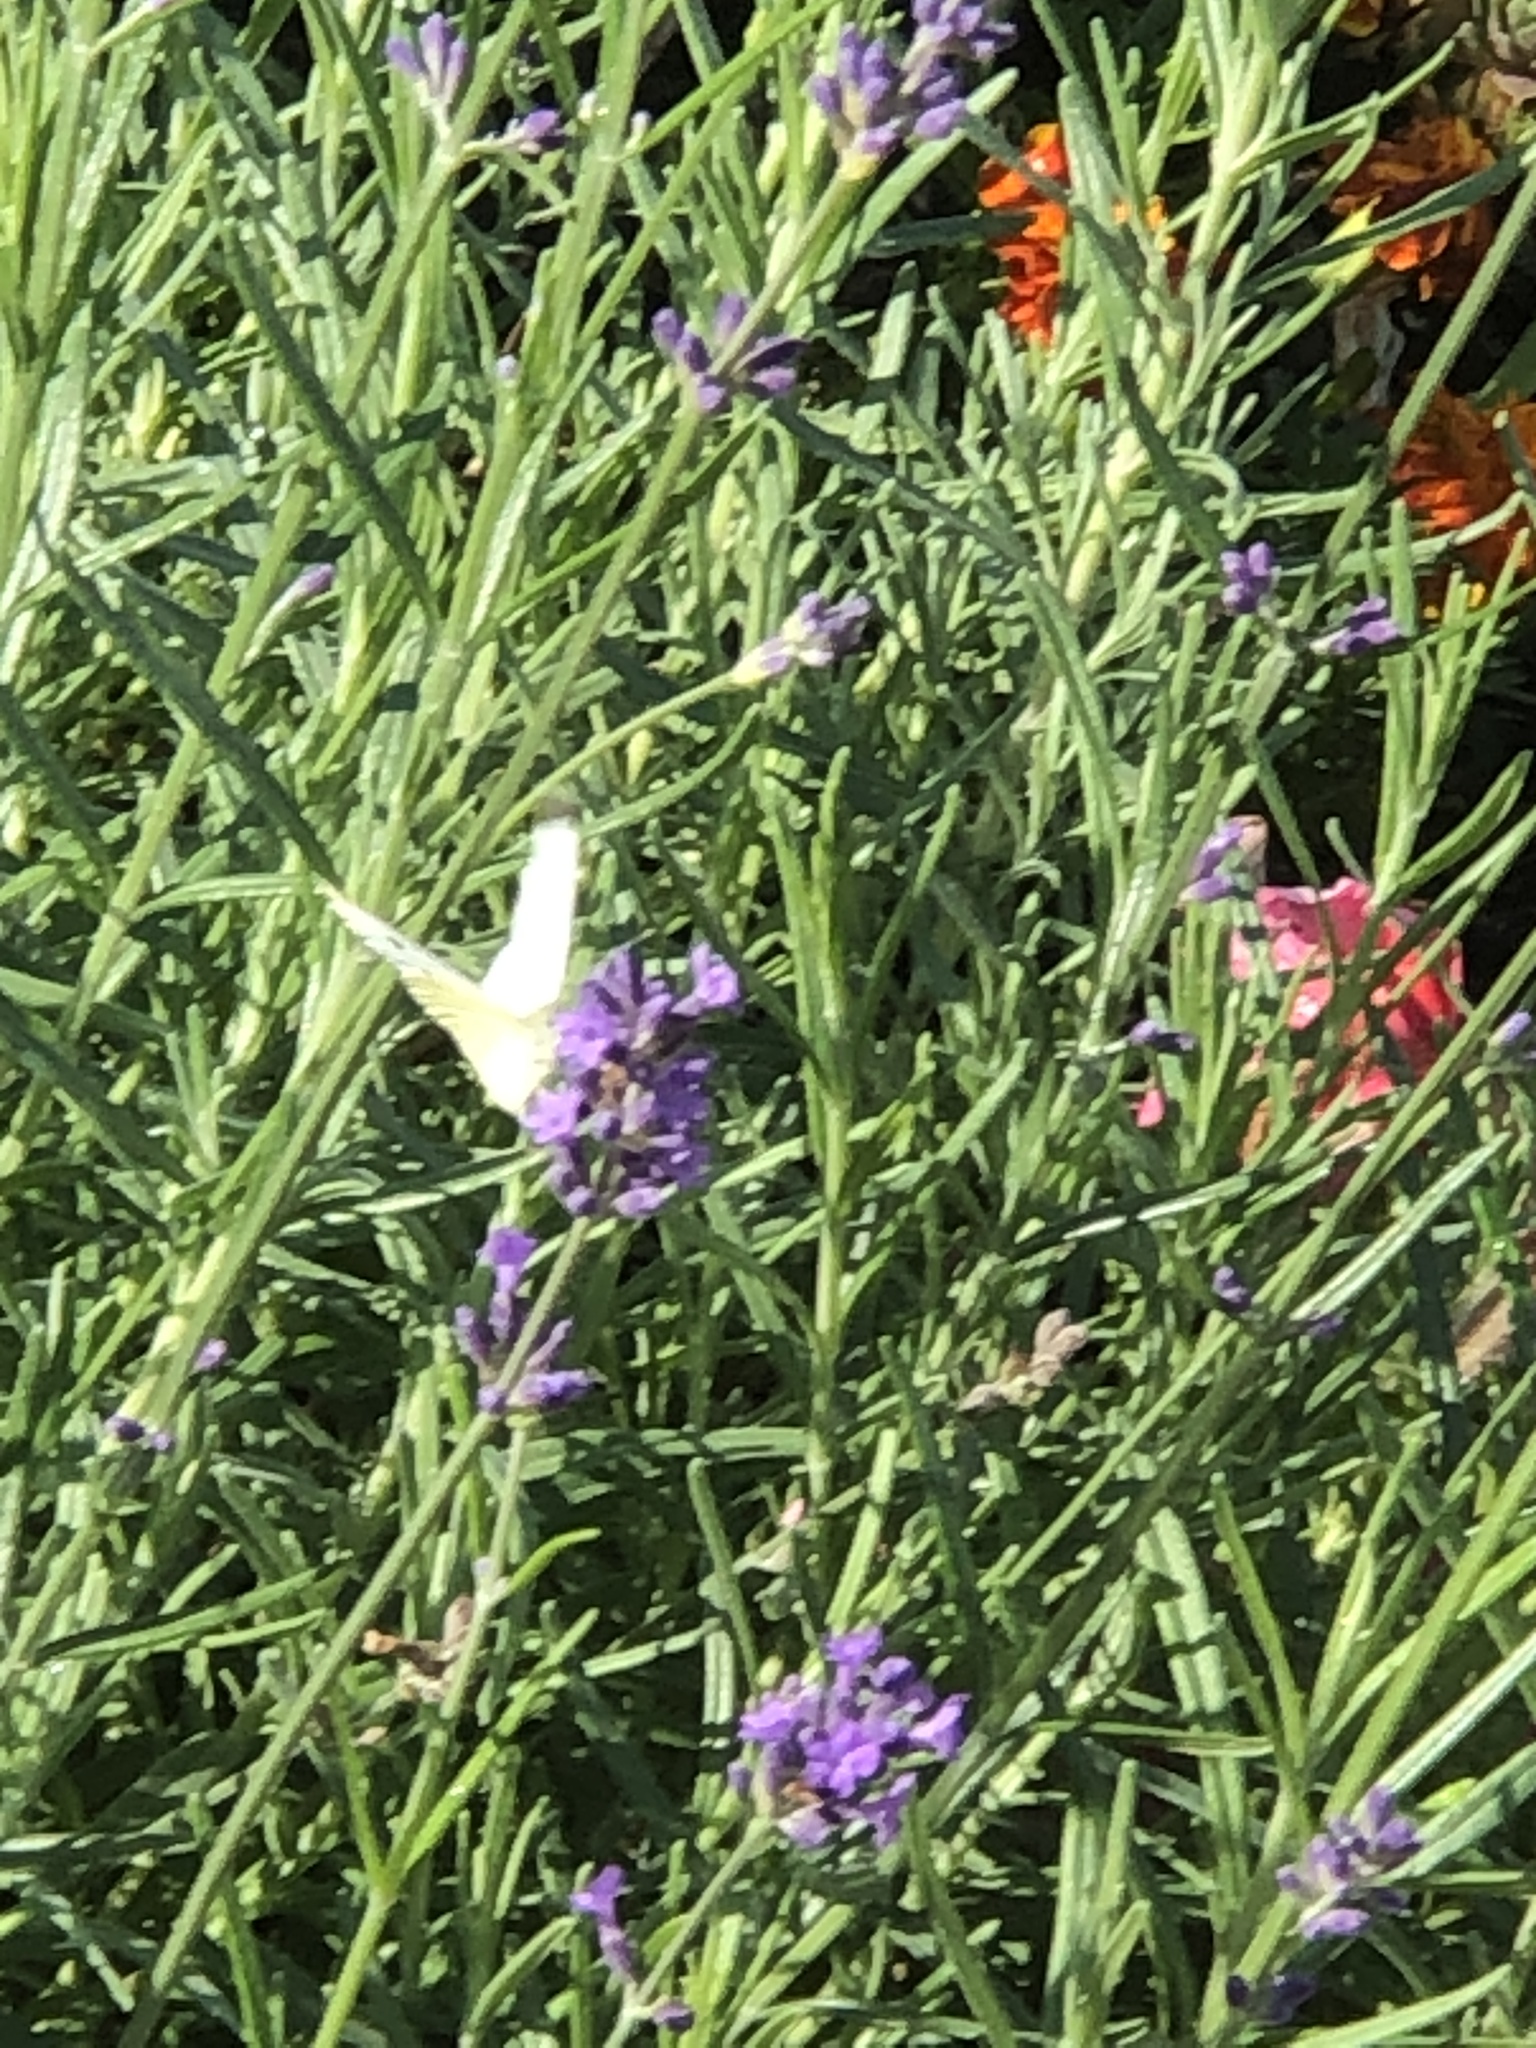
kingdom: Animalia
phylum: Arthropoda
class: Insecta
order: Lepidoptera
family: Pieridae
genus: Pieris
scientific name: Pieris rapae
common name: Small white
